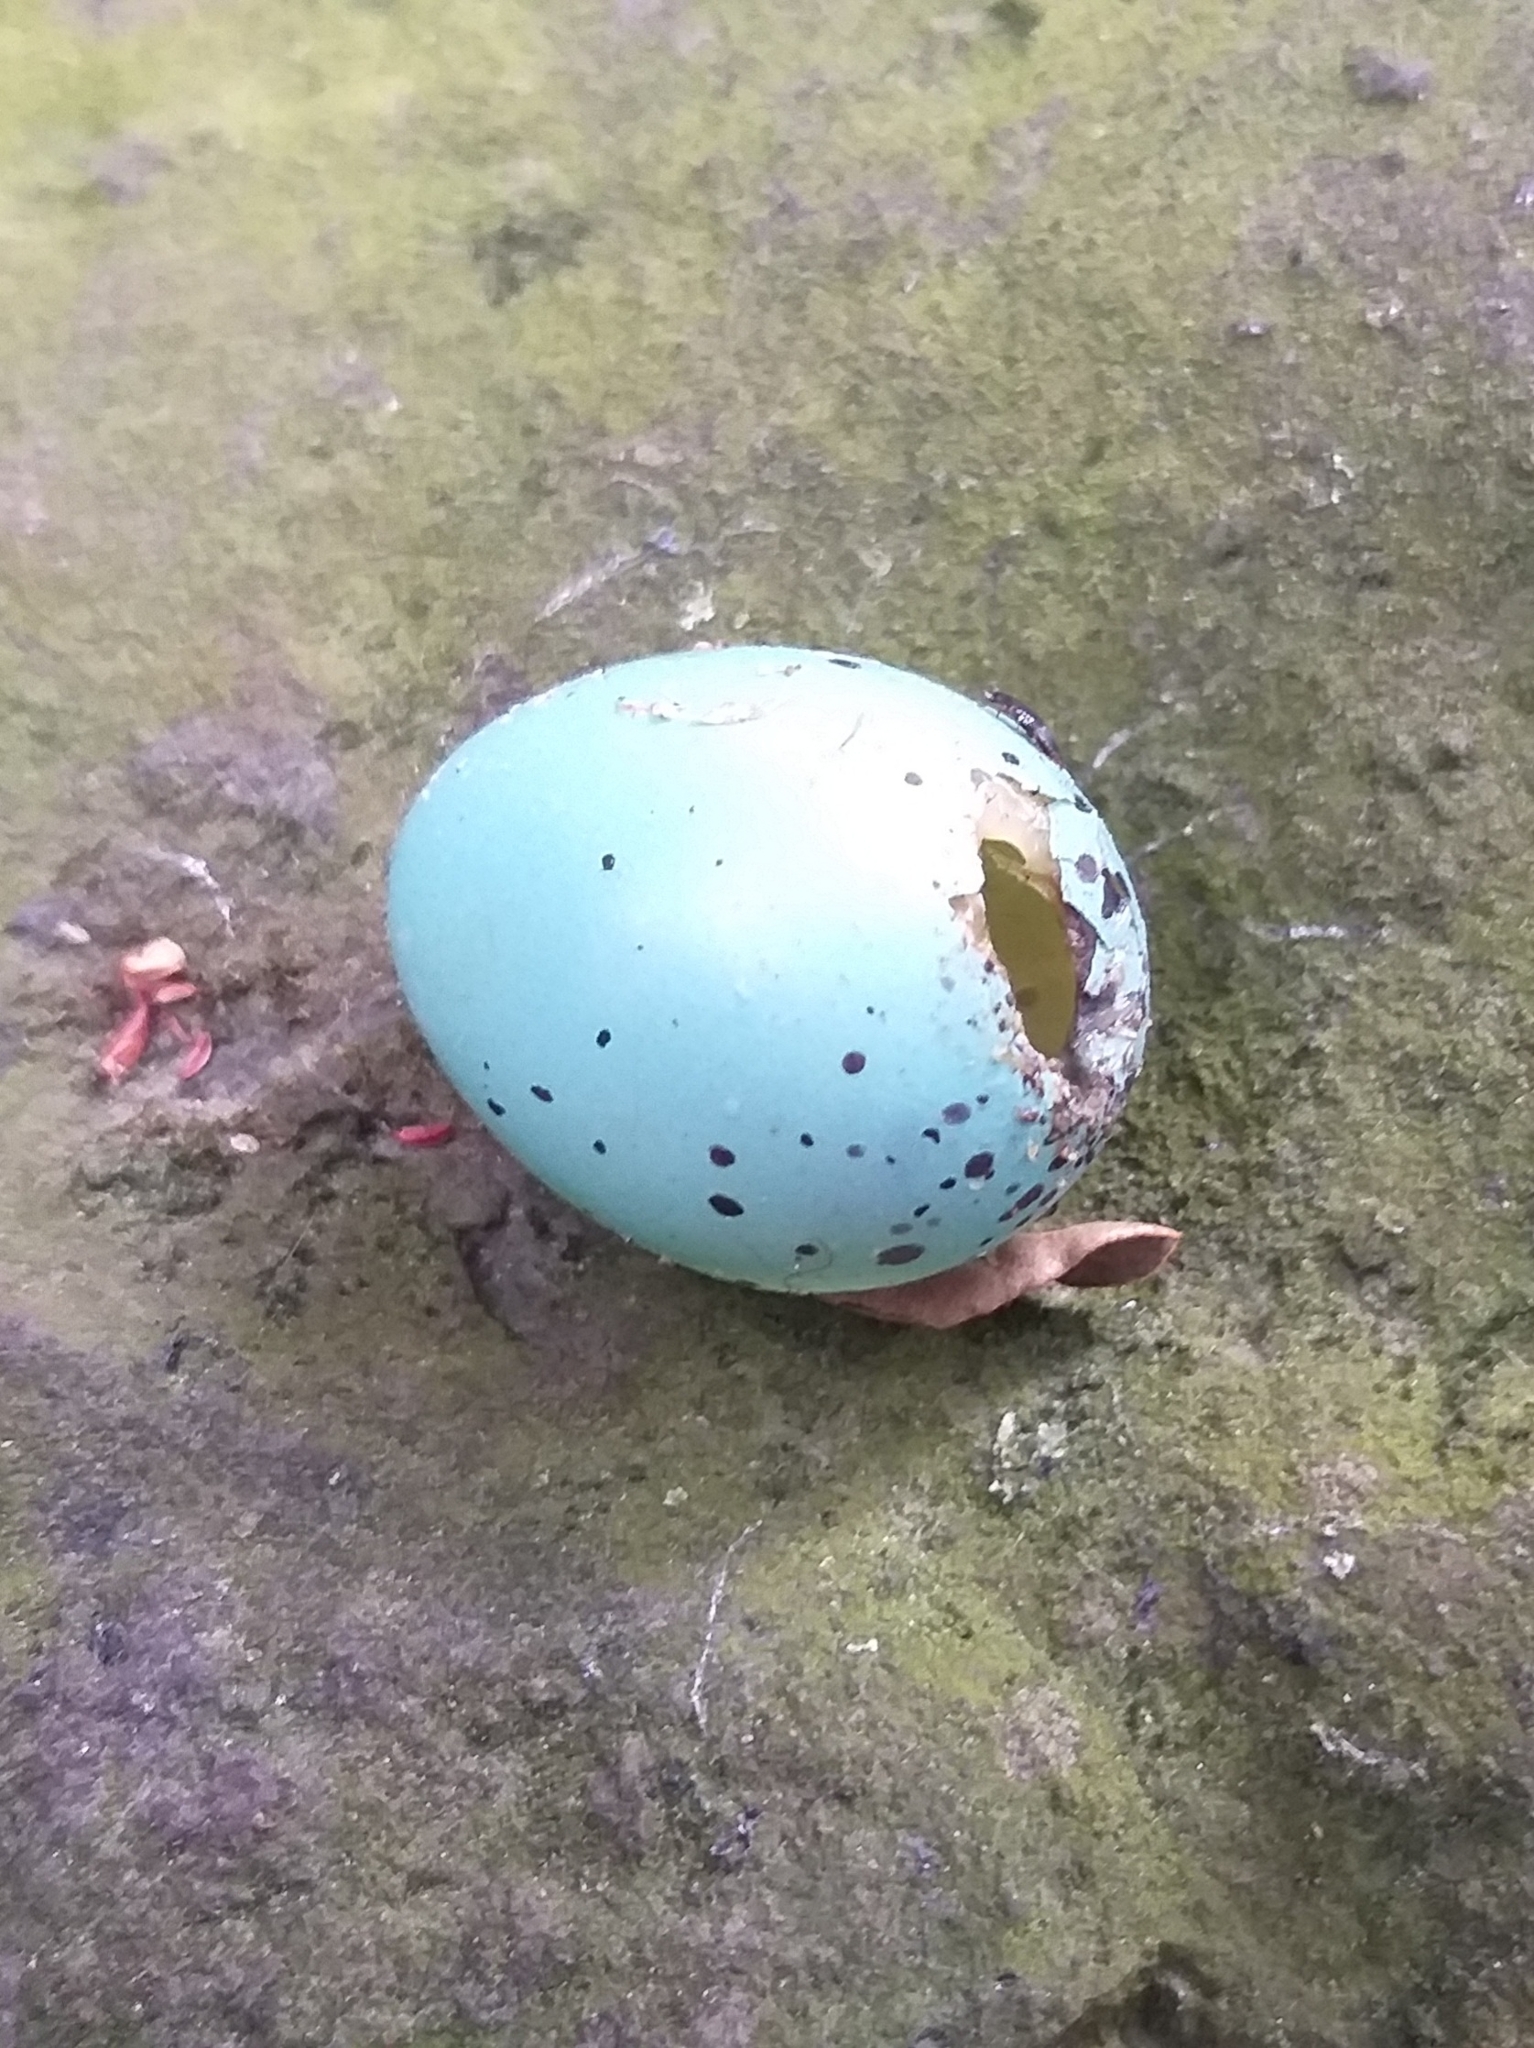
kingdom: Animalia
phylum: Chordata
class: Aves
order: Passeriformes
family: Turdidae
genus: Turdus
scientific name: Turdus philomelos
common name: Song thrush
